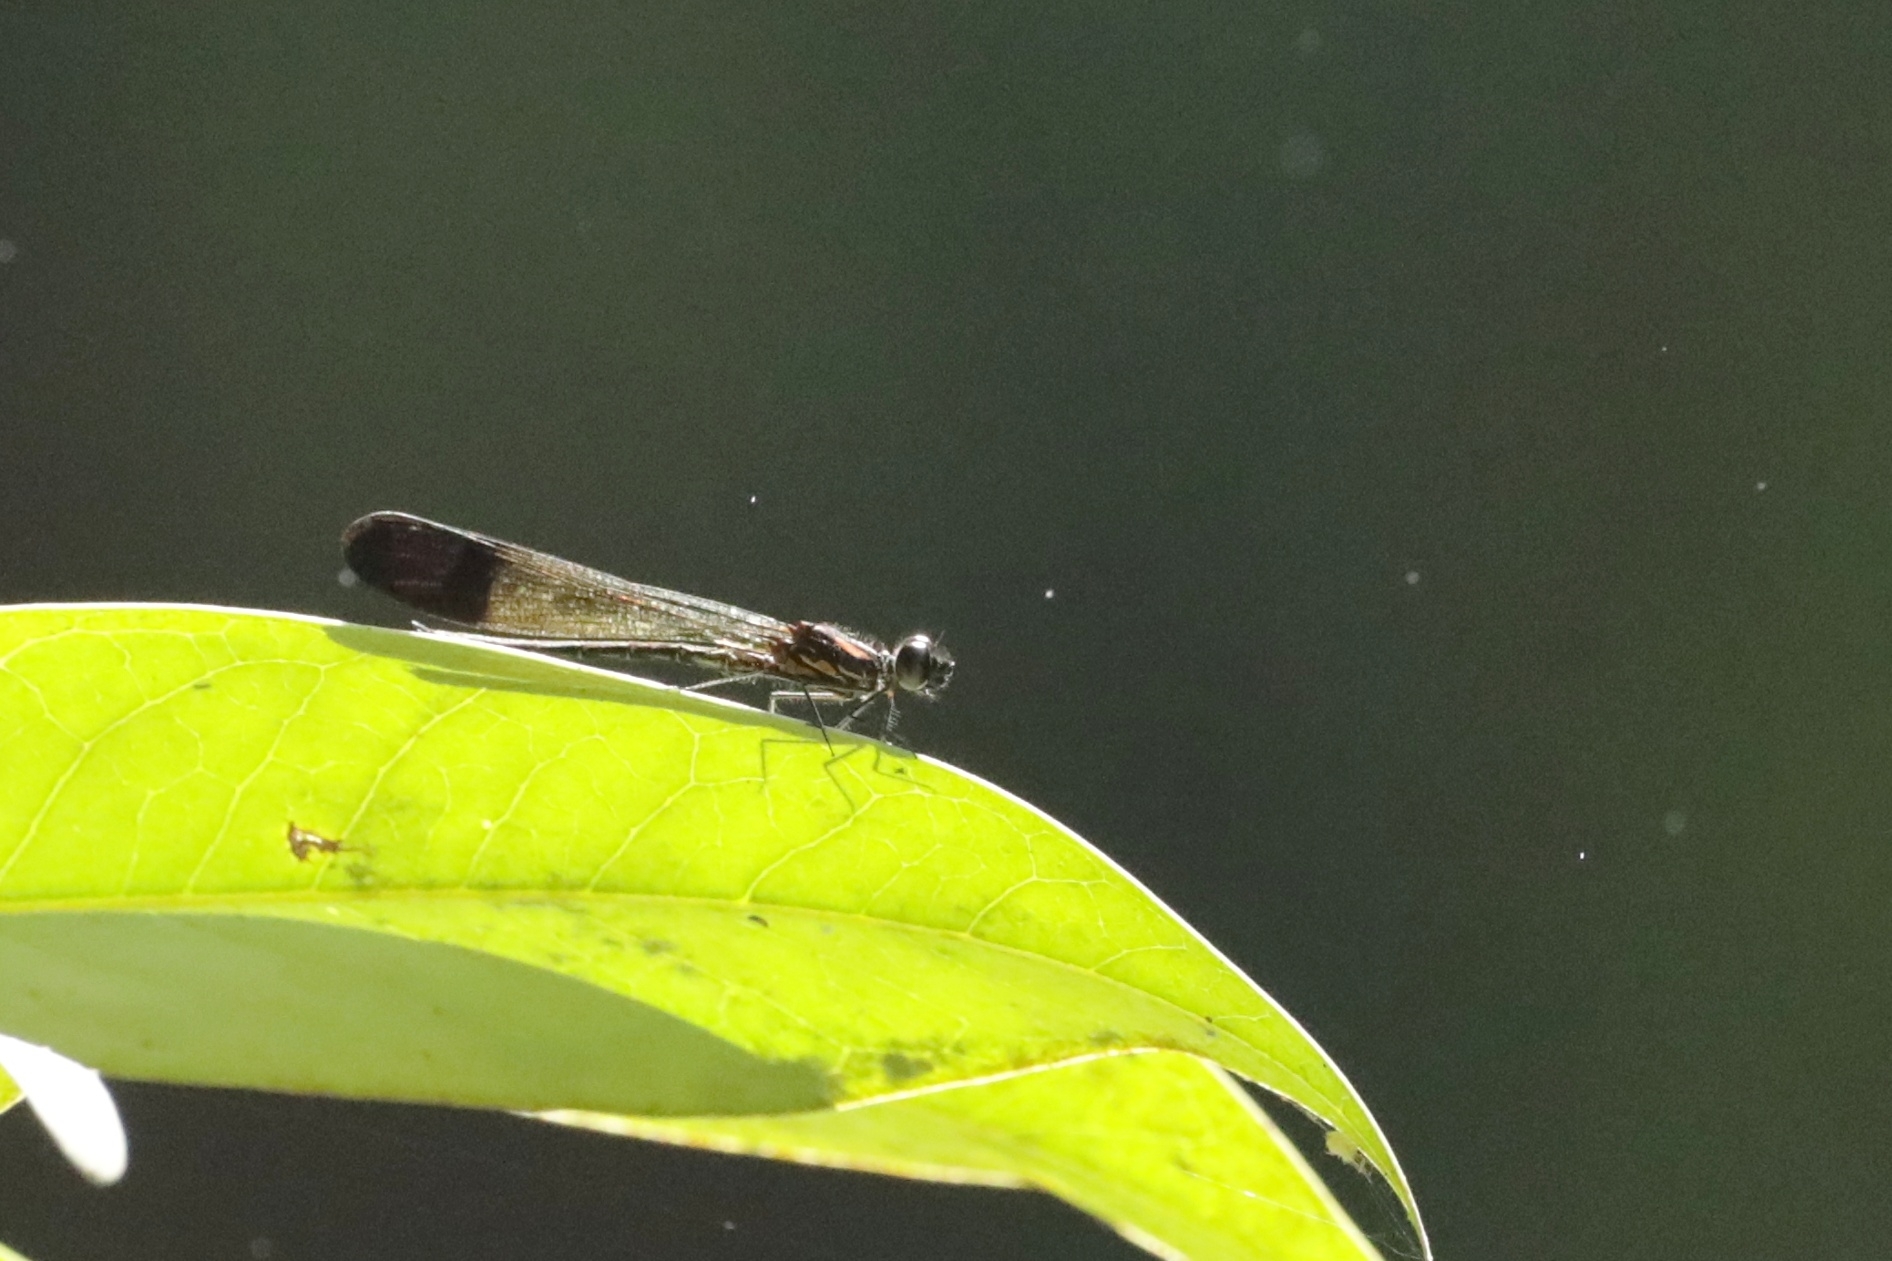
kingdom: Animalia
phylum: Arthropoda
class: Insecta
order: Odonata
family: Chlorocyphidae
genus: Heliocypha
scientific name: Heliocypha bisignata
